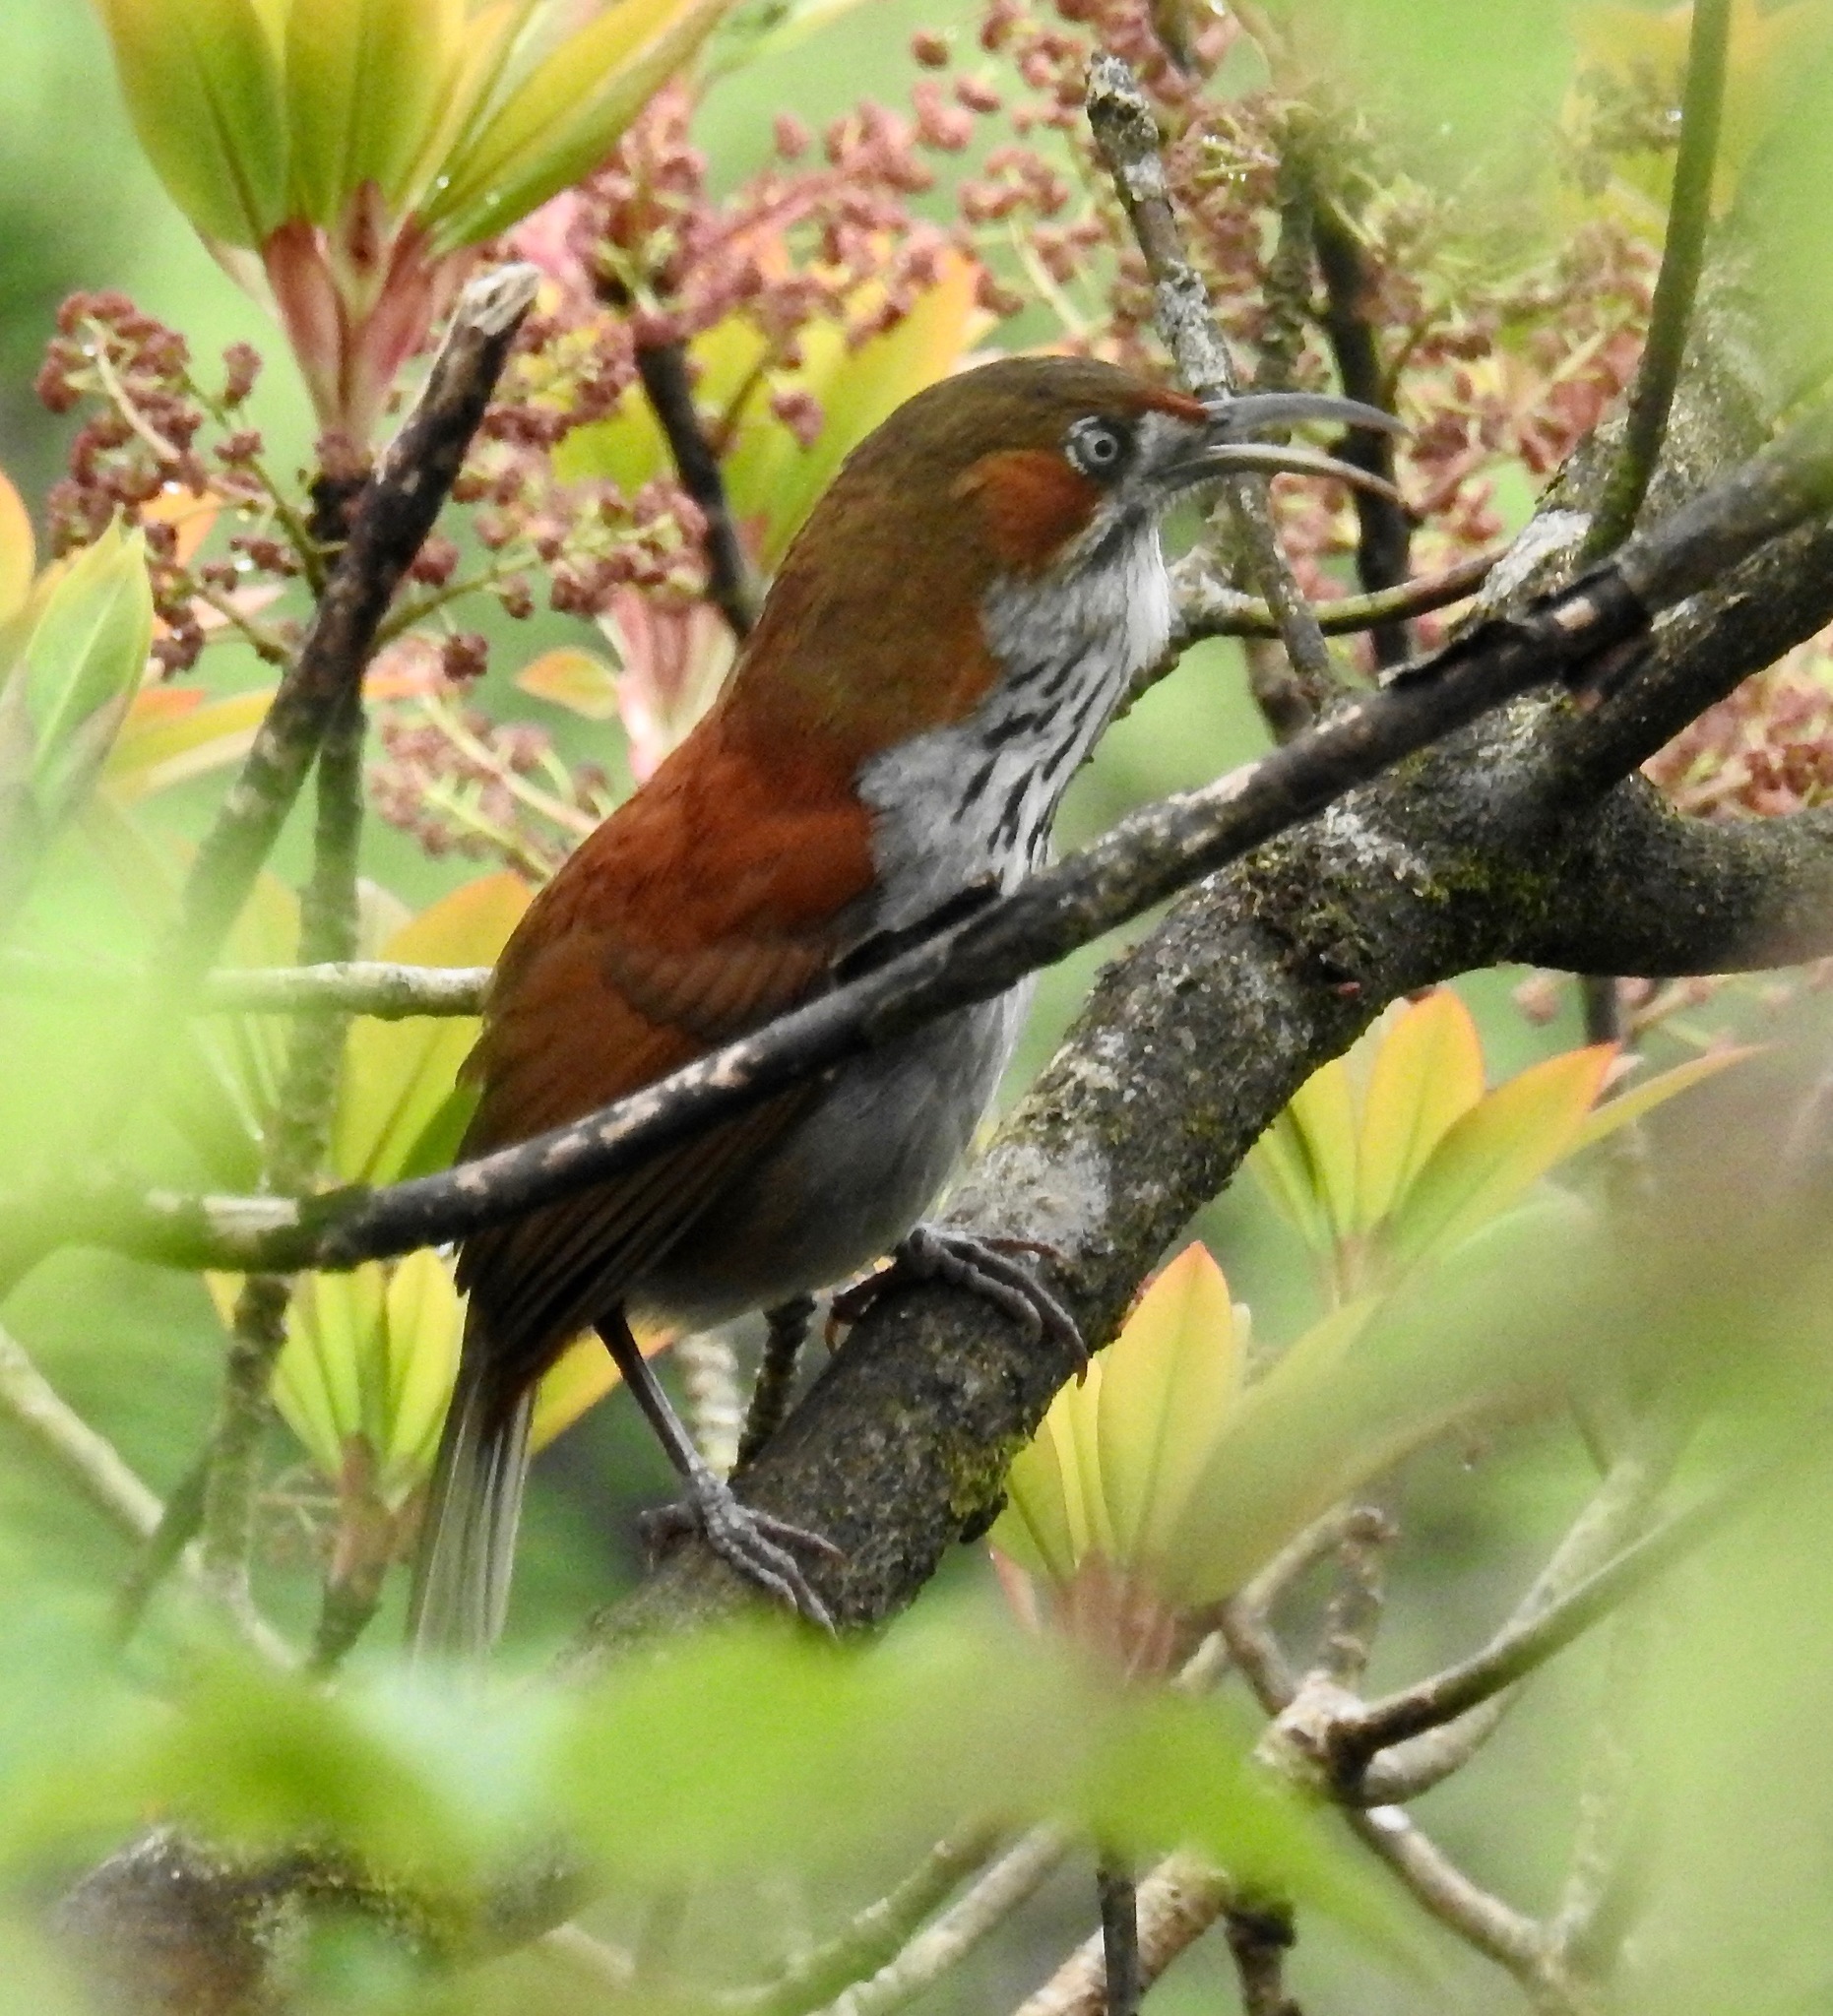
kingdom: Animalia
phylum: Chordata
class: Aves
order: Passeriformes
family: Timaliidae
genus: Pomatorhinus
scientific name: Pomatorhinus swinhoei
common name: Grey-sided scimitar babbler
